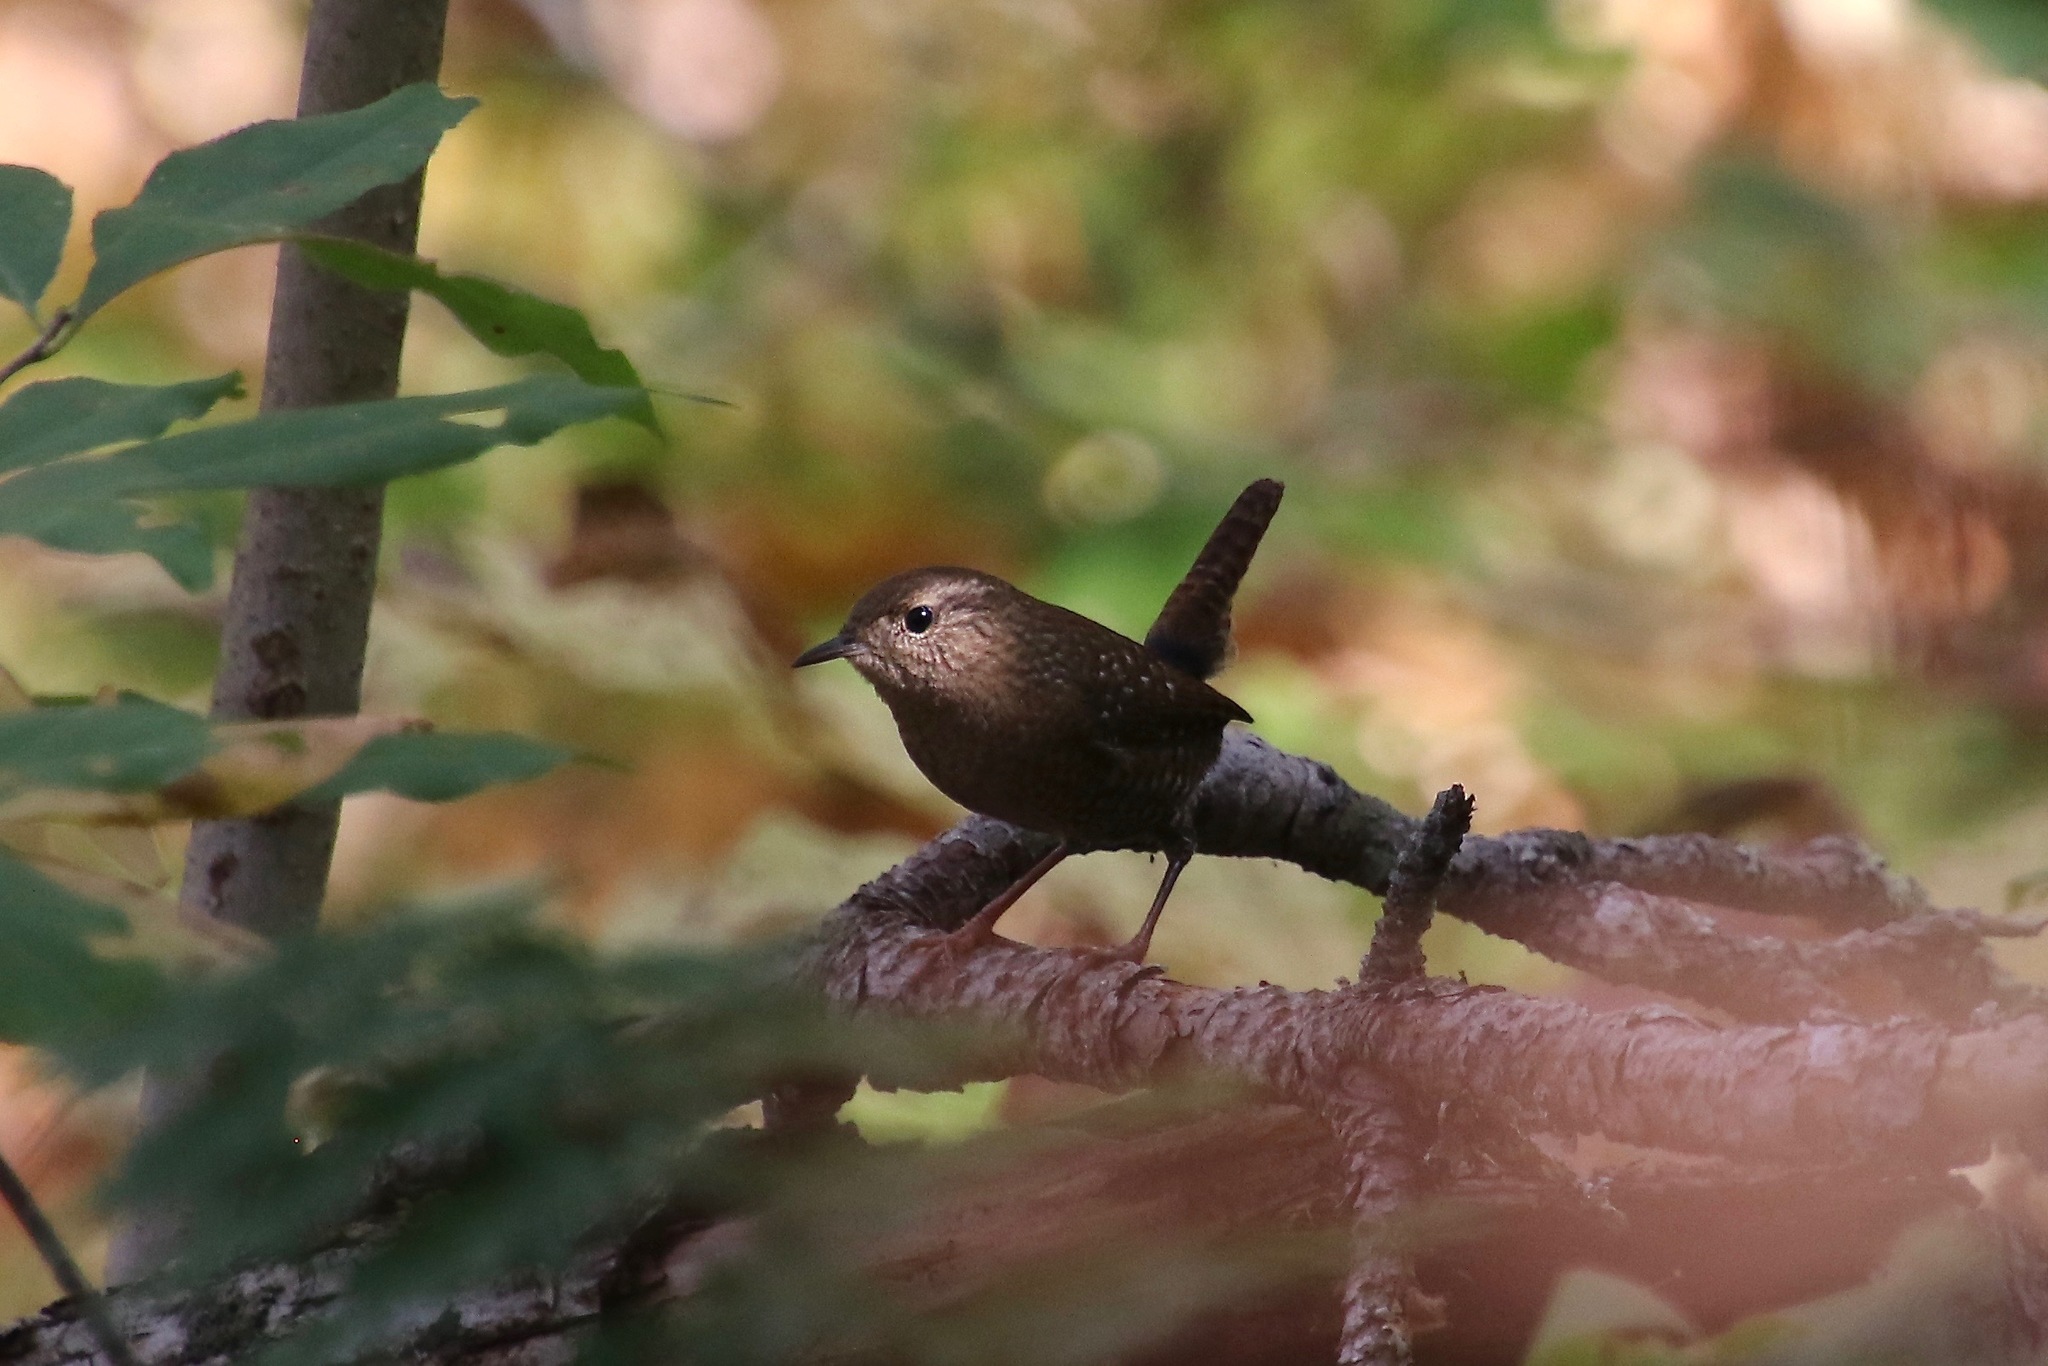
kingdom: Animalia
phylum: Chordata
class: Aves
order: Passeriformes
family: Troglodytidae
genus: Troglodytes
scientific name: Troglodytes hiemalis
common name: Winter wren
